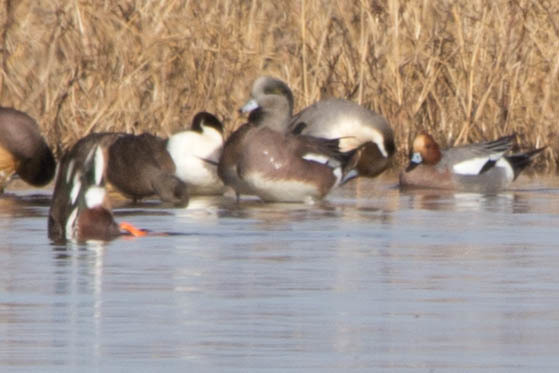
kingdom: Animalia
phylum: Chordata
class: Aves
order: Anseriformes
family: Anatidae
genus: Mareca
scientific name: Mareca americana
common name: American wigeon
